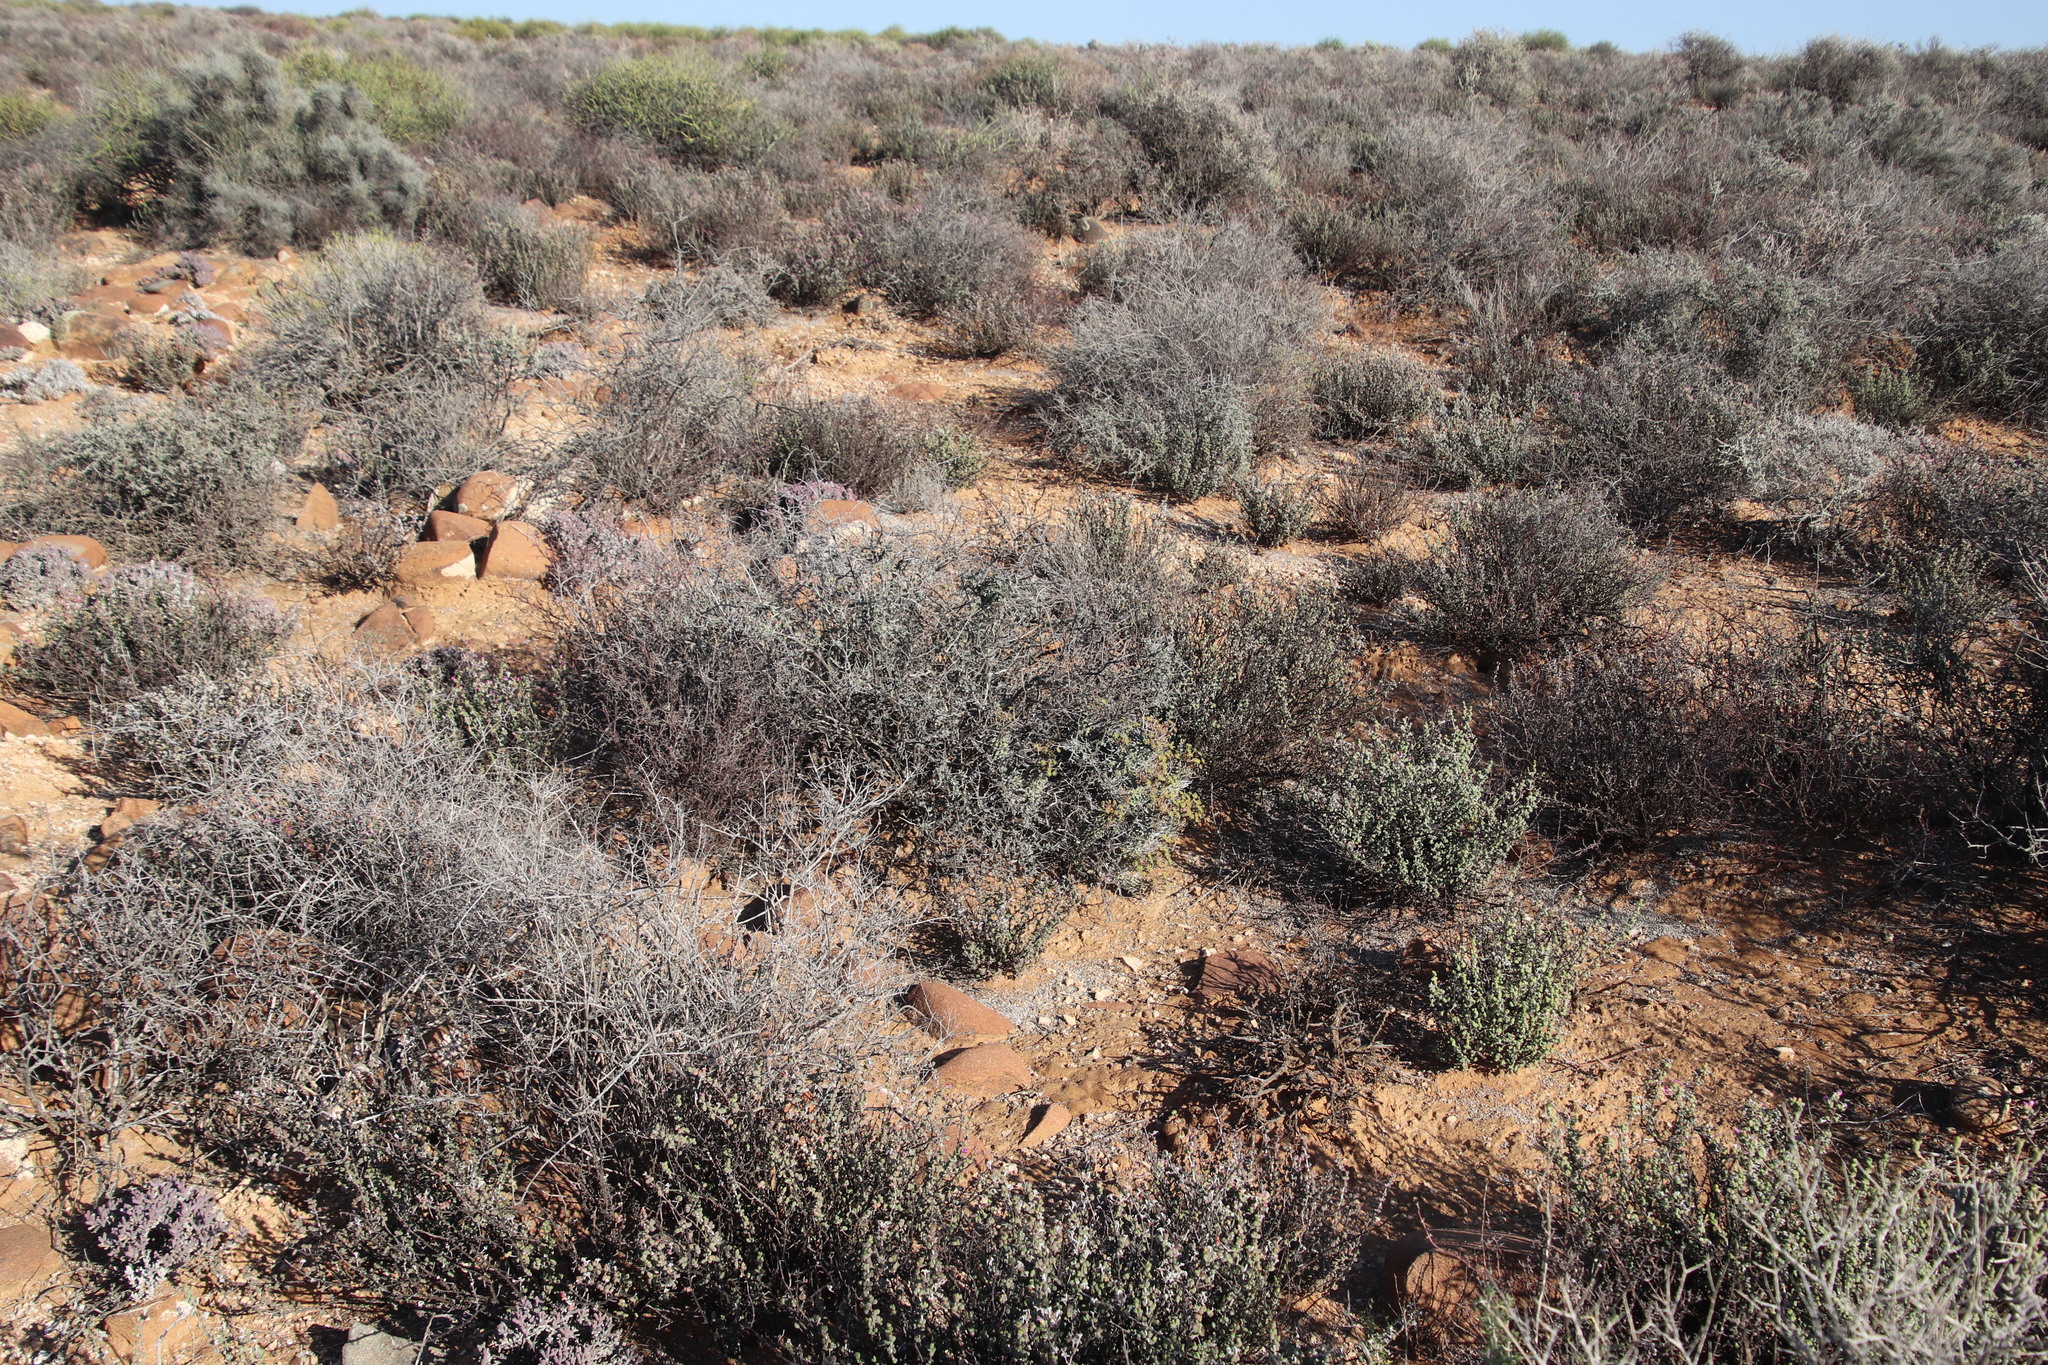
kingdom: Plantae
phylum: Tracheophyta
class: Magnoliopsida
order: Malpighiales
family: Euphorbiaceae
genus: Euphorbia
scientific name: Euphorbia multiceps
